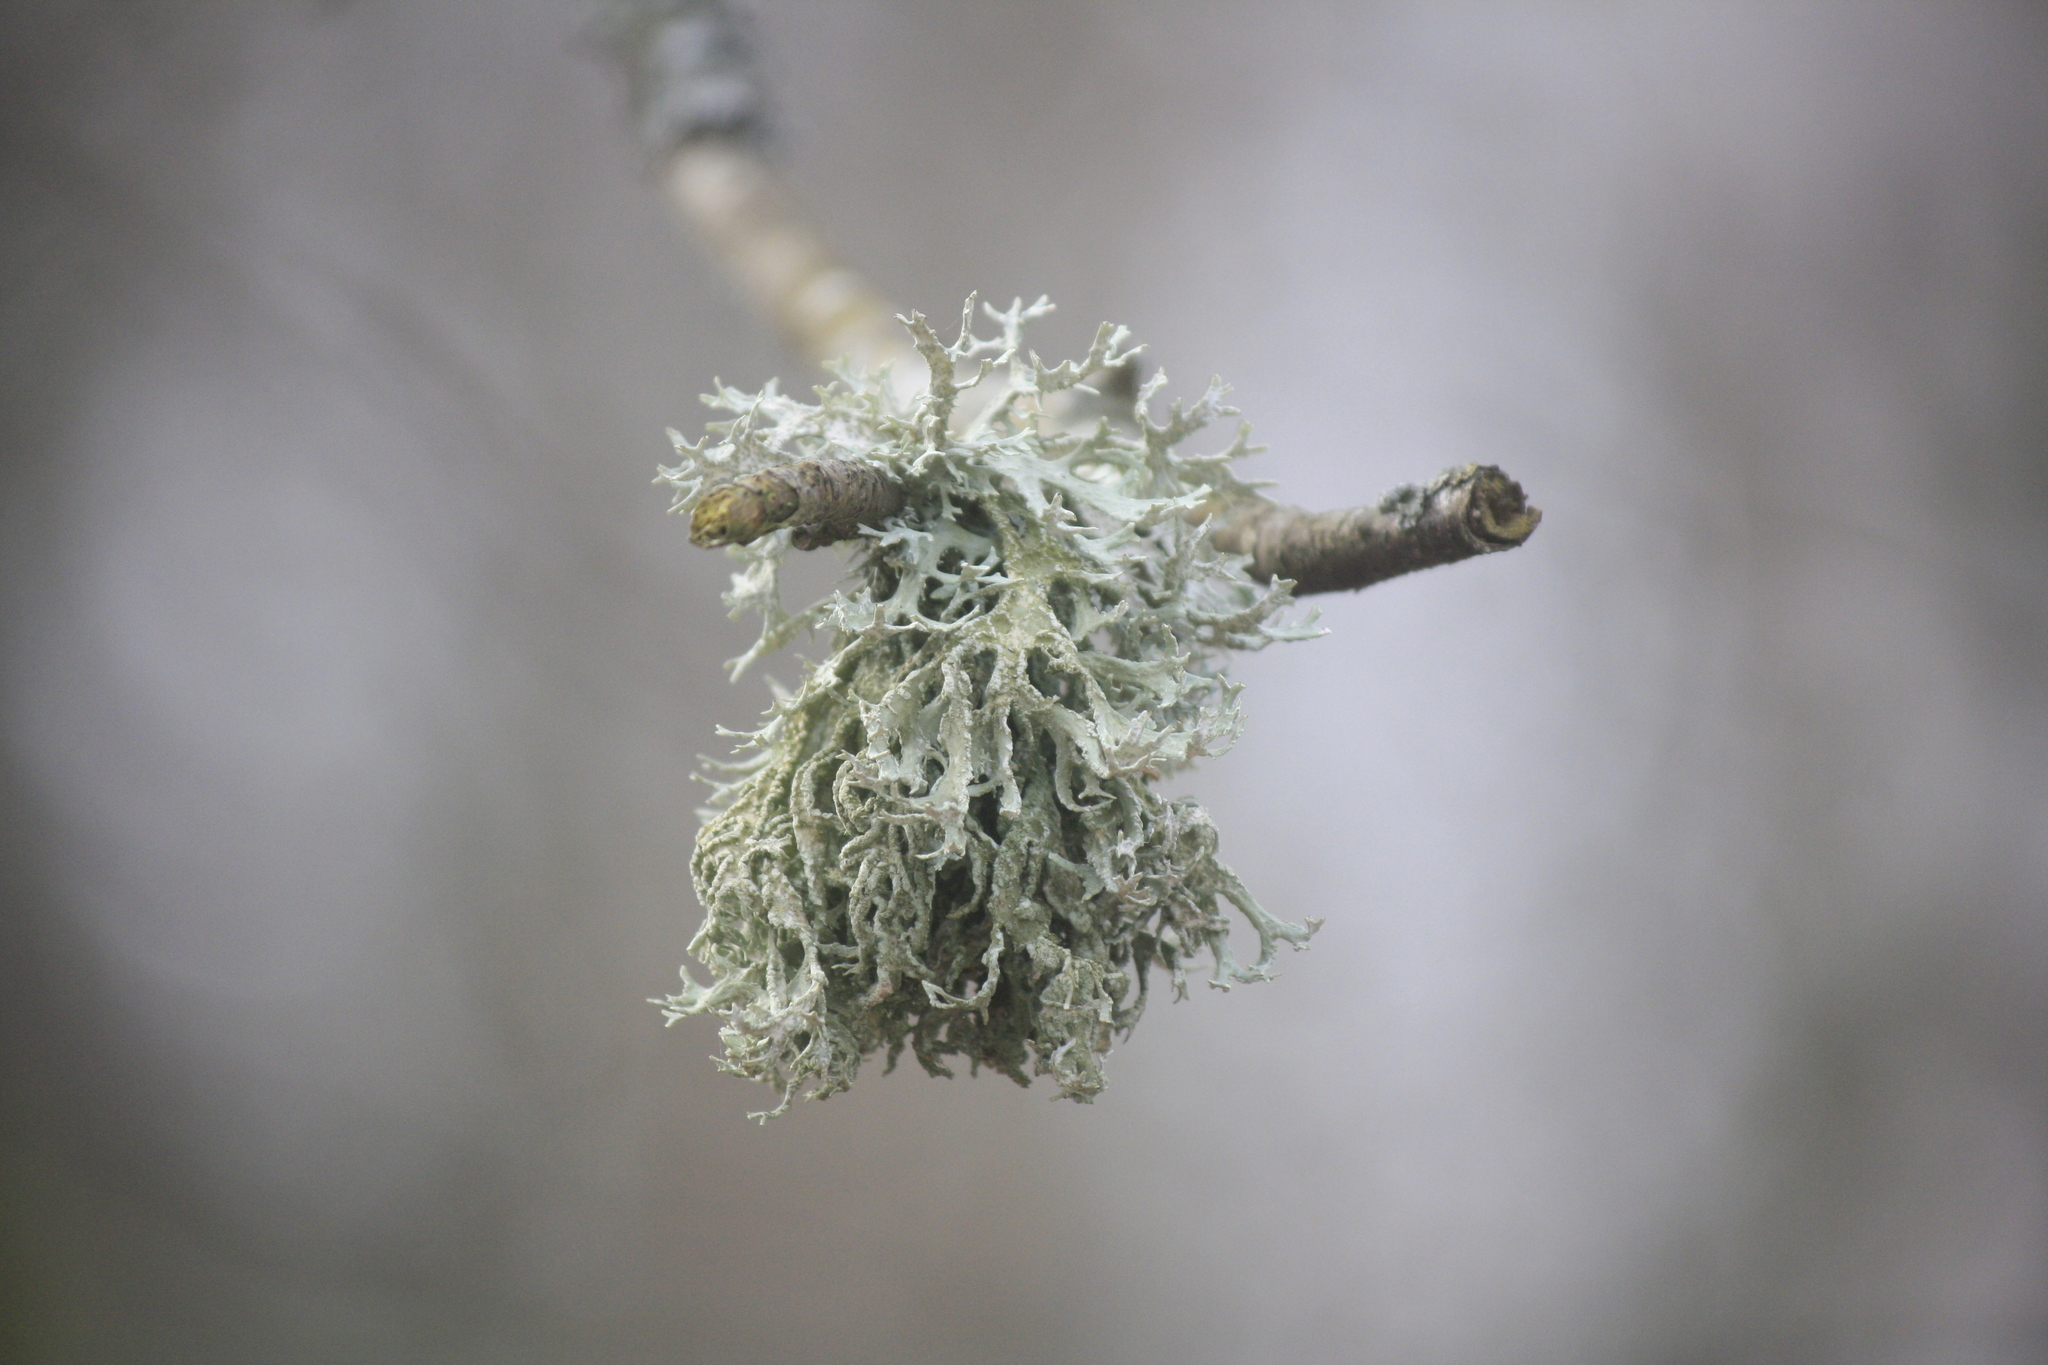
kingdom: Fungi
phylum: Ascomycota
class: Lecanoromycetes
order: Lecanorales
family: Parmeliaceae
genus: Evernia
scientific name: Evernia prunastri
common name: Oak moss
